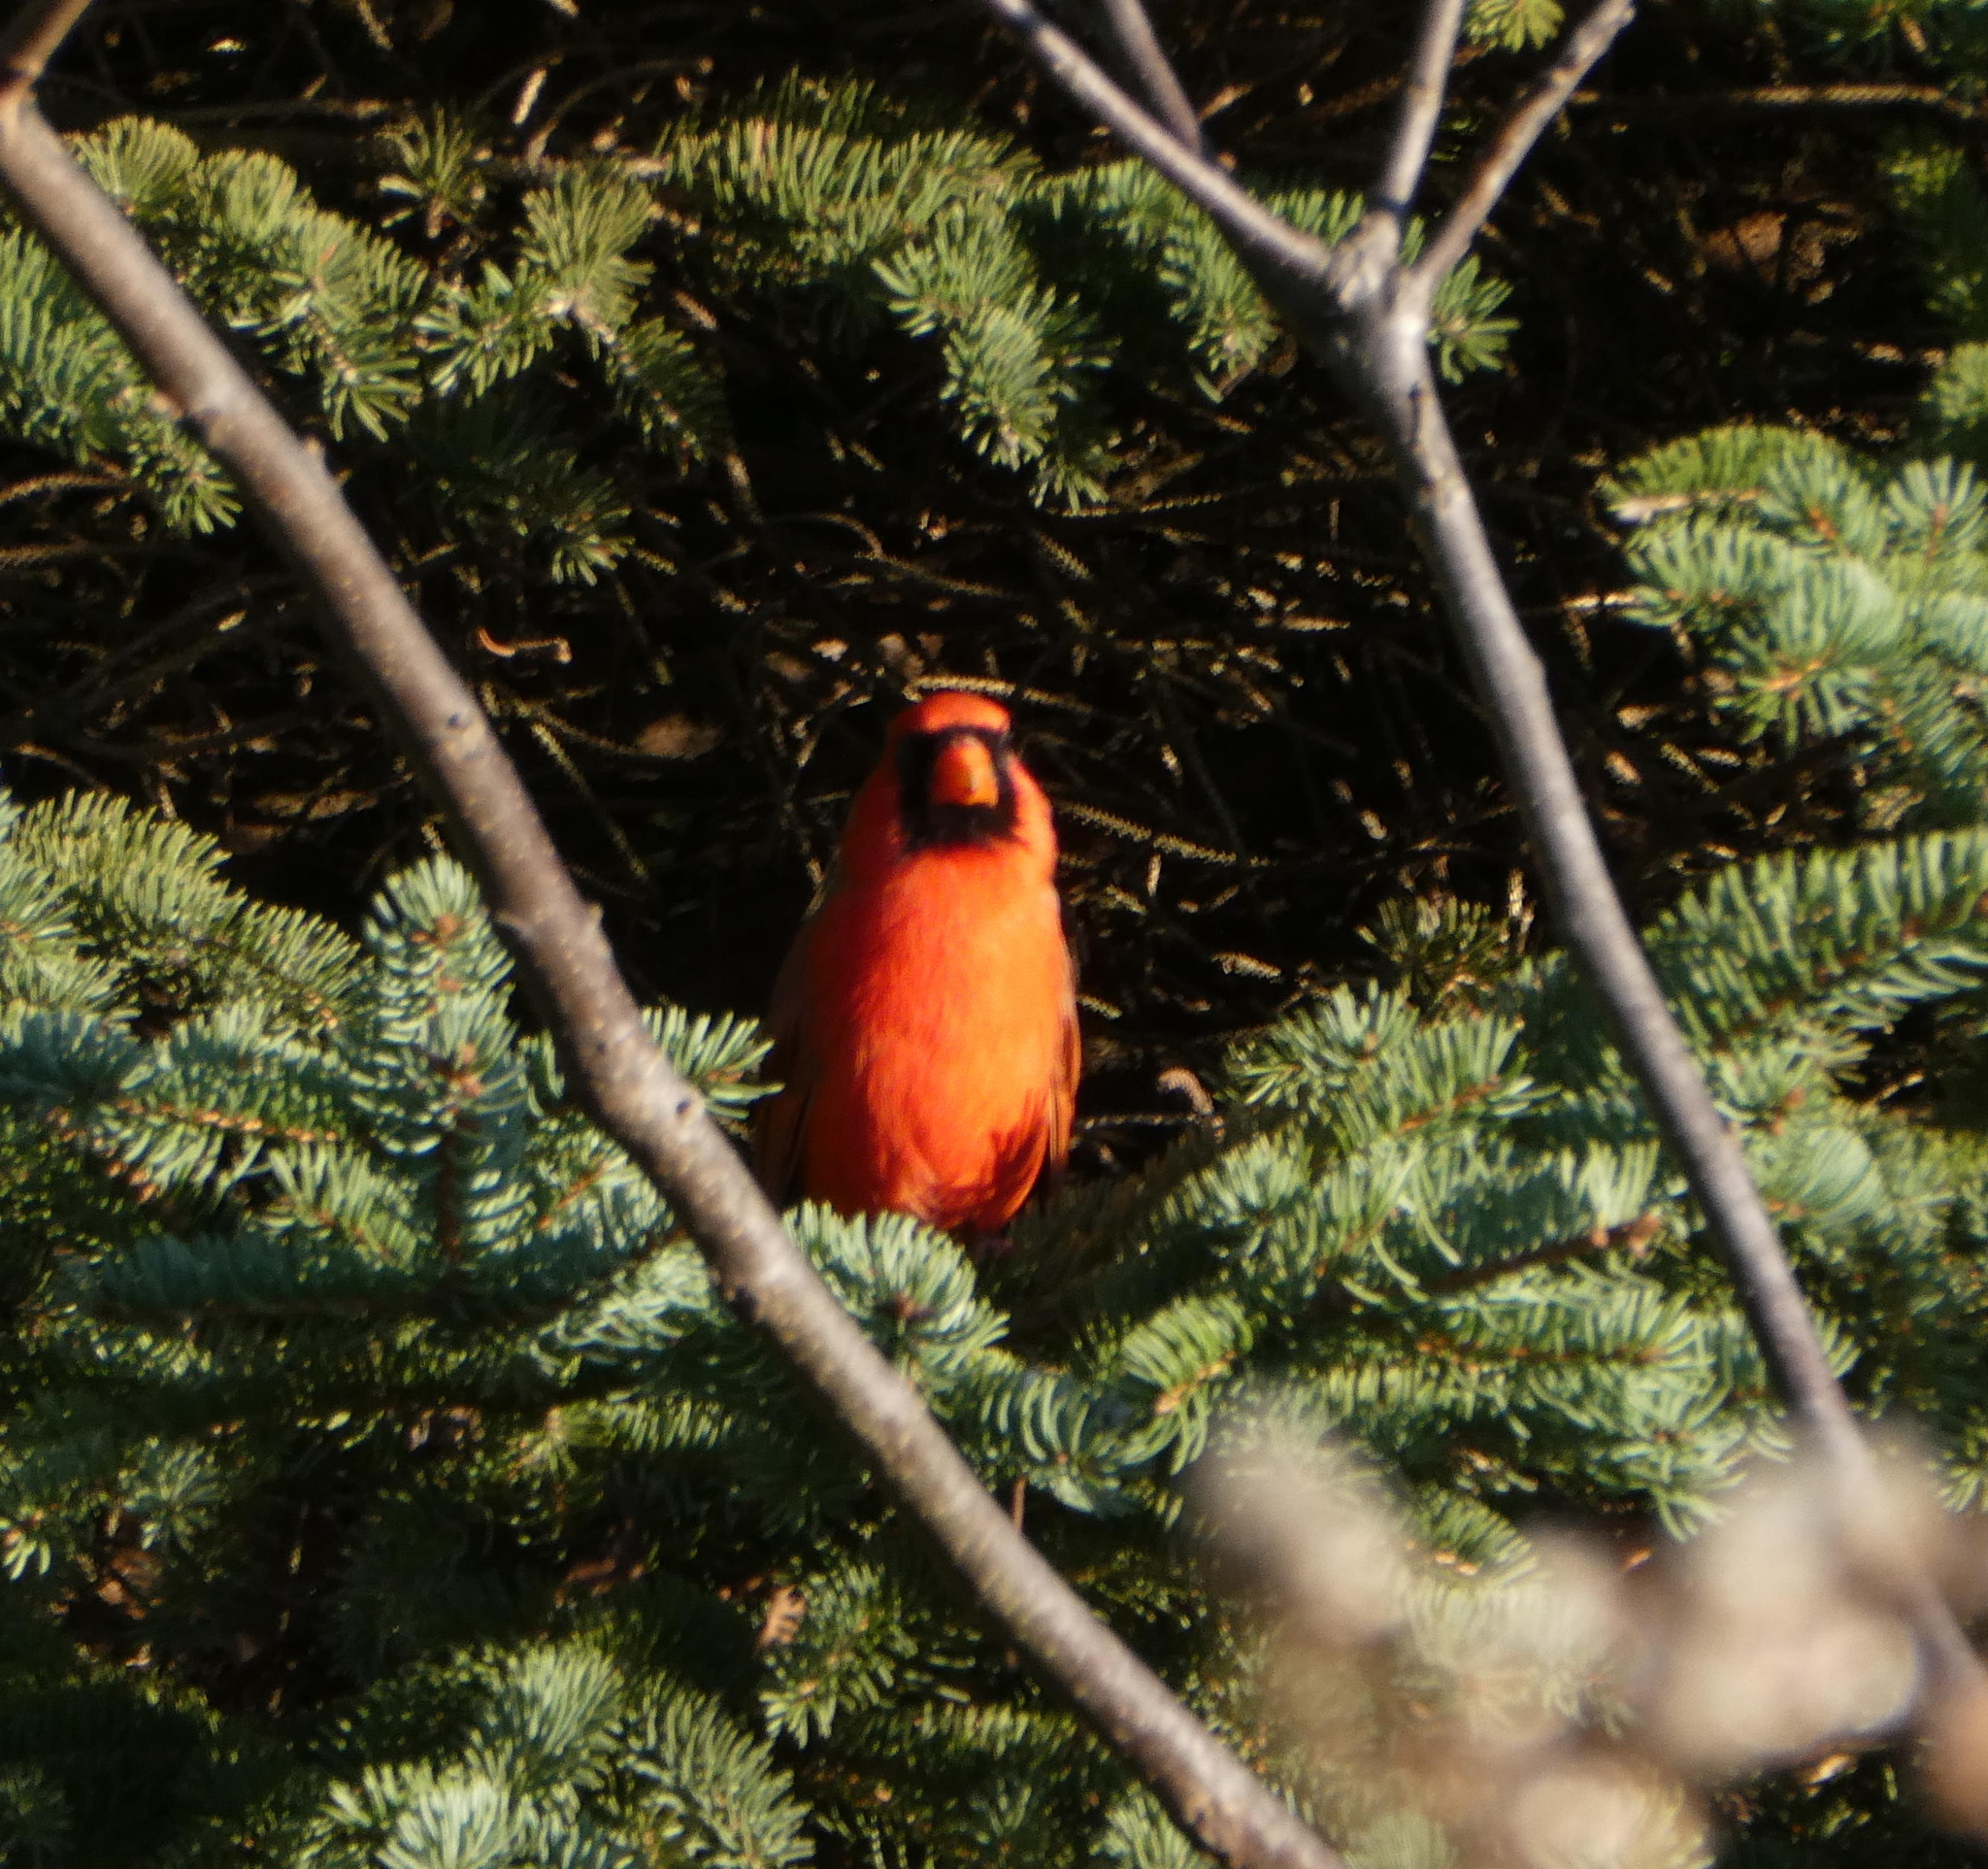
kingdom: Animalia
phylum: Chordata
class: Aves
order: Passeriformes
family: Cardinalidae
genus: Cardinalis
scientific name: Cardinalis cardinalis
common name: Northern cardinal
